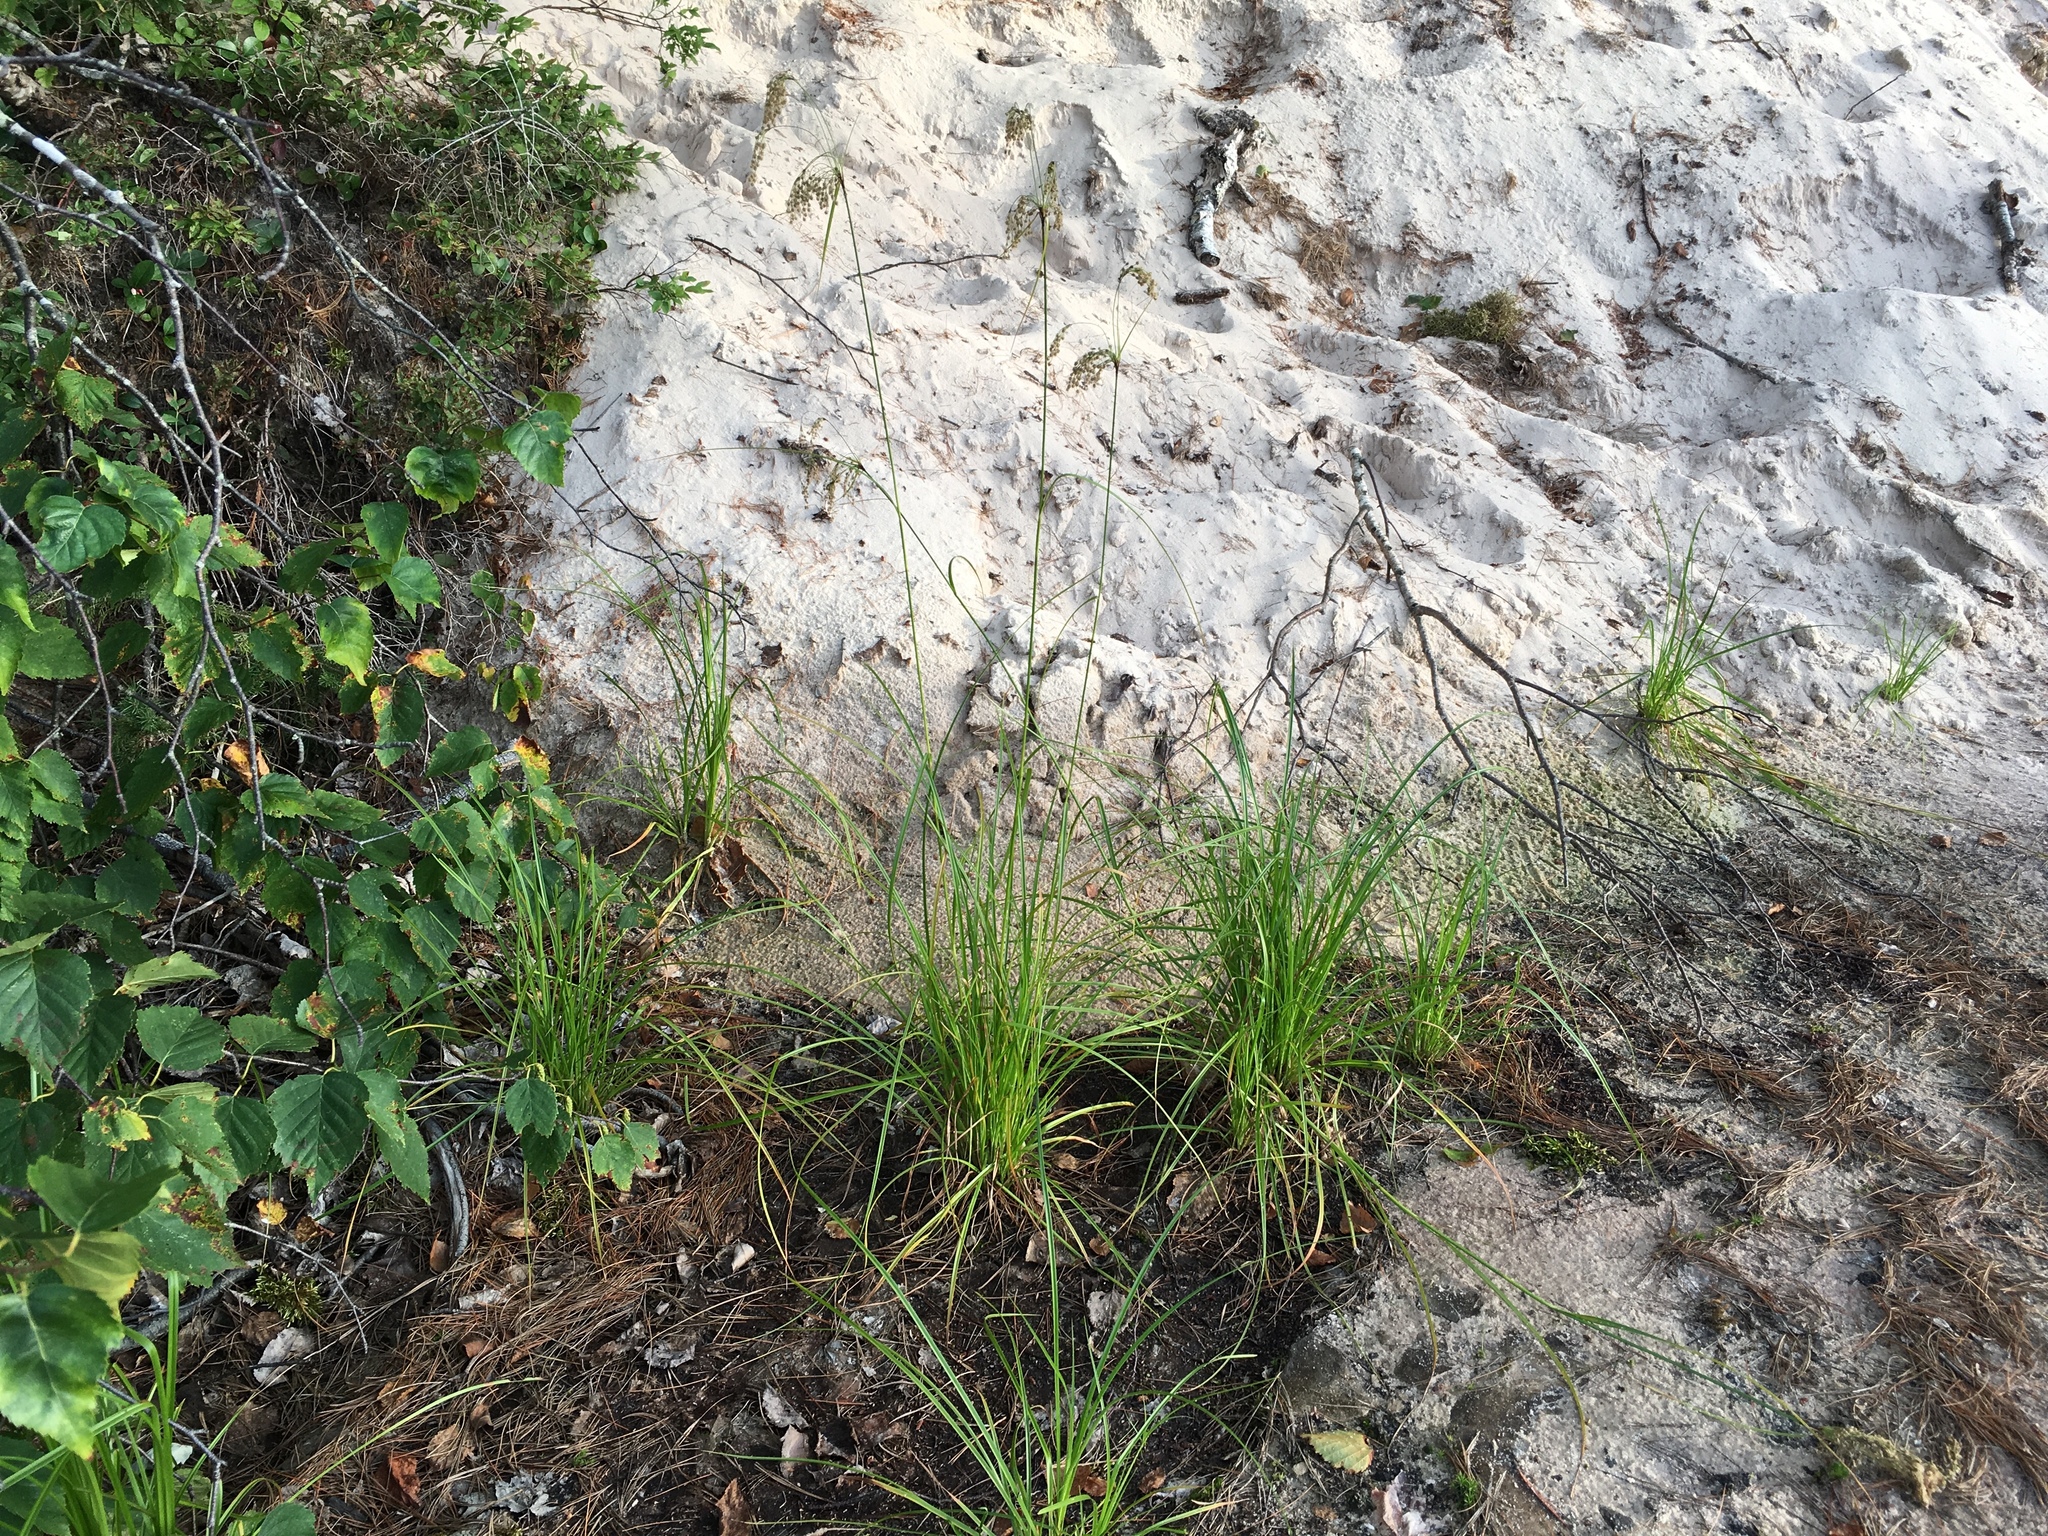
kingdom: Plantae
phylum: Tracheophyta
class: Liliopsida
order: Poales
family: Cyperaceae
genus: Scirpus
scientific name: Scirpus atrocinctus
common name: Black-girdled bulrush
